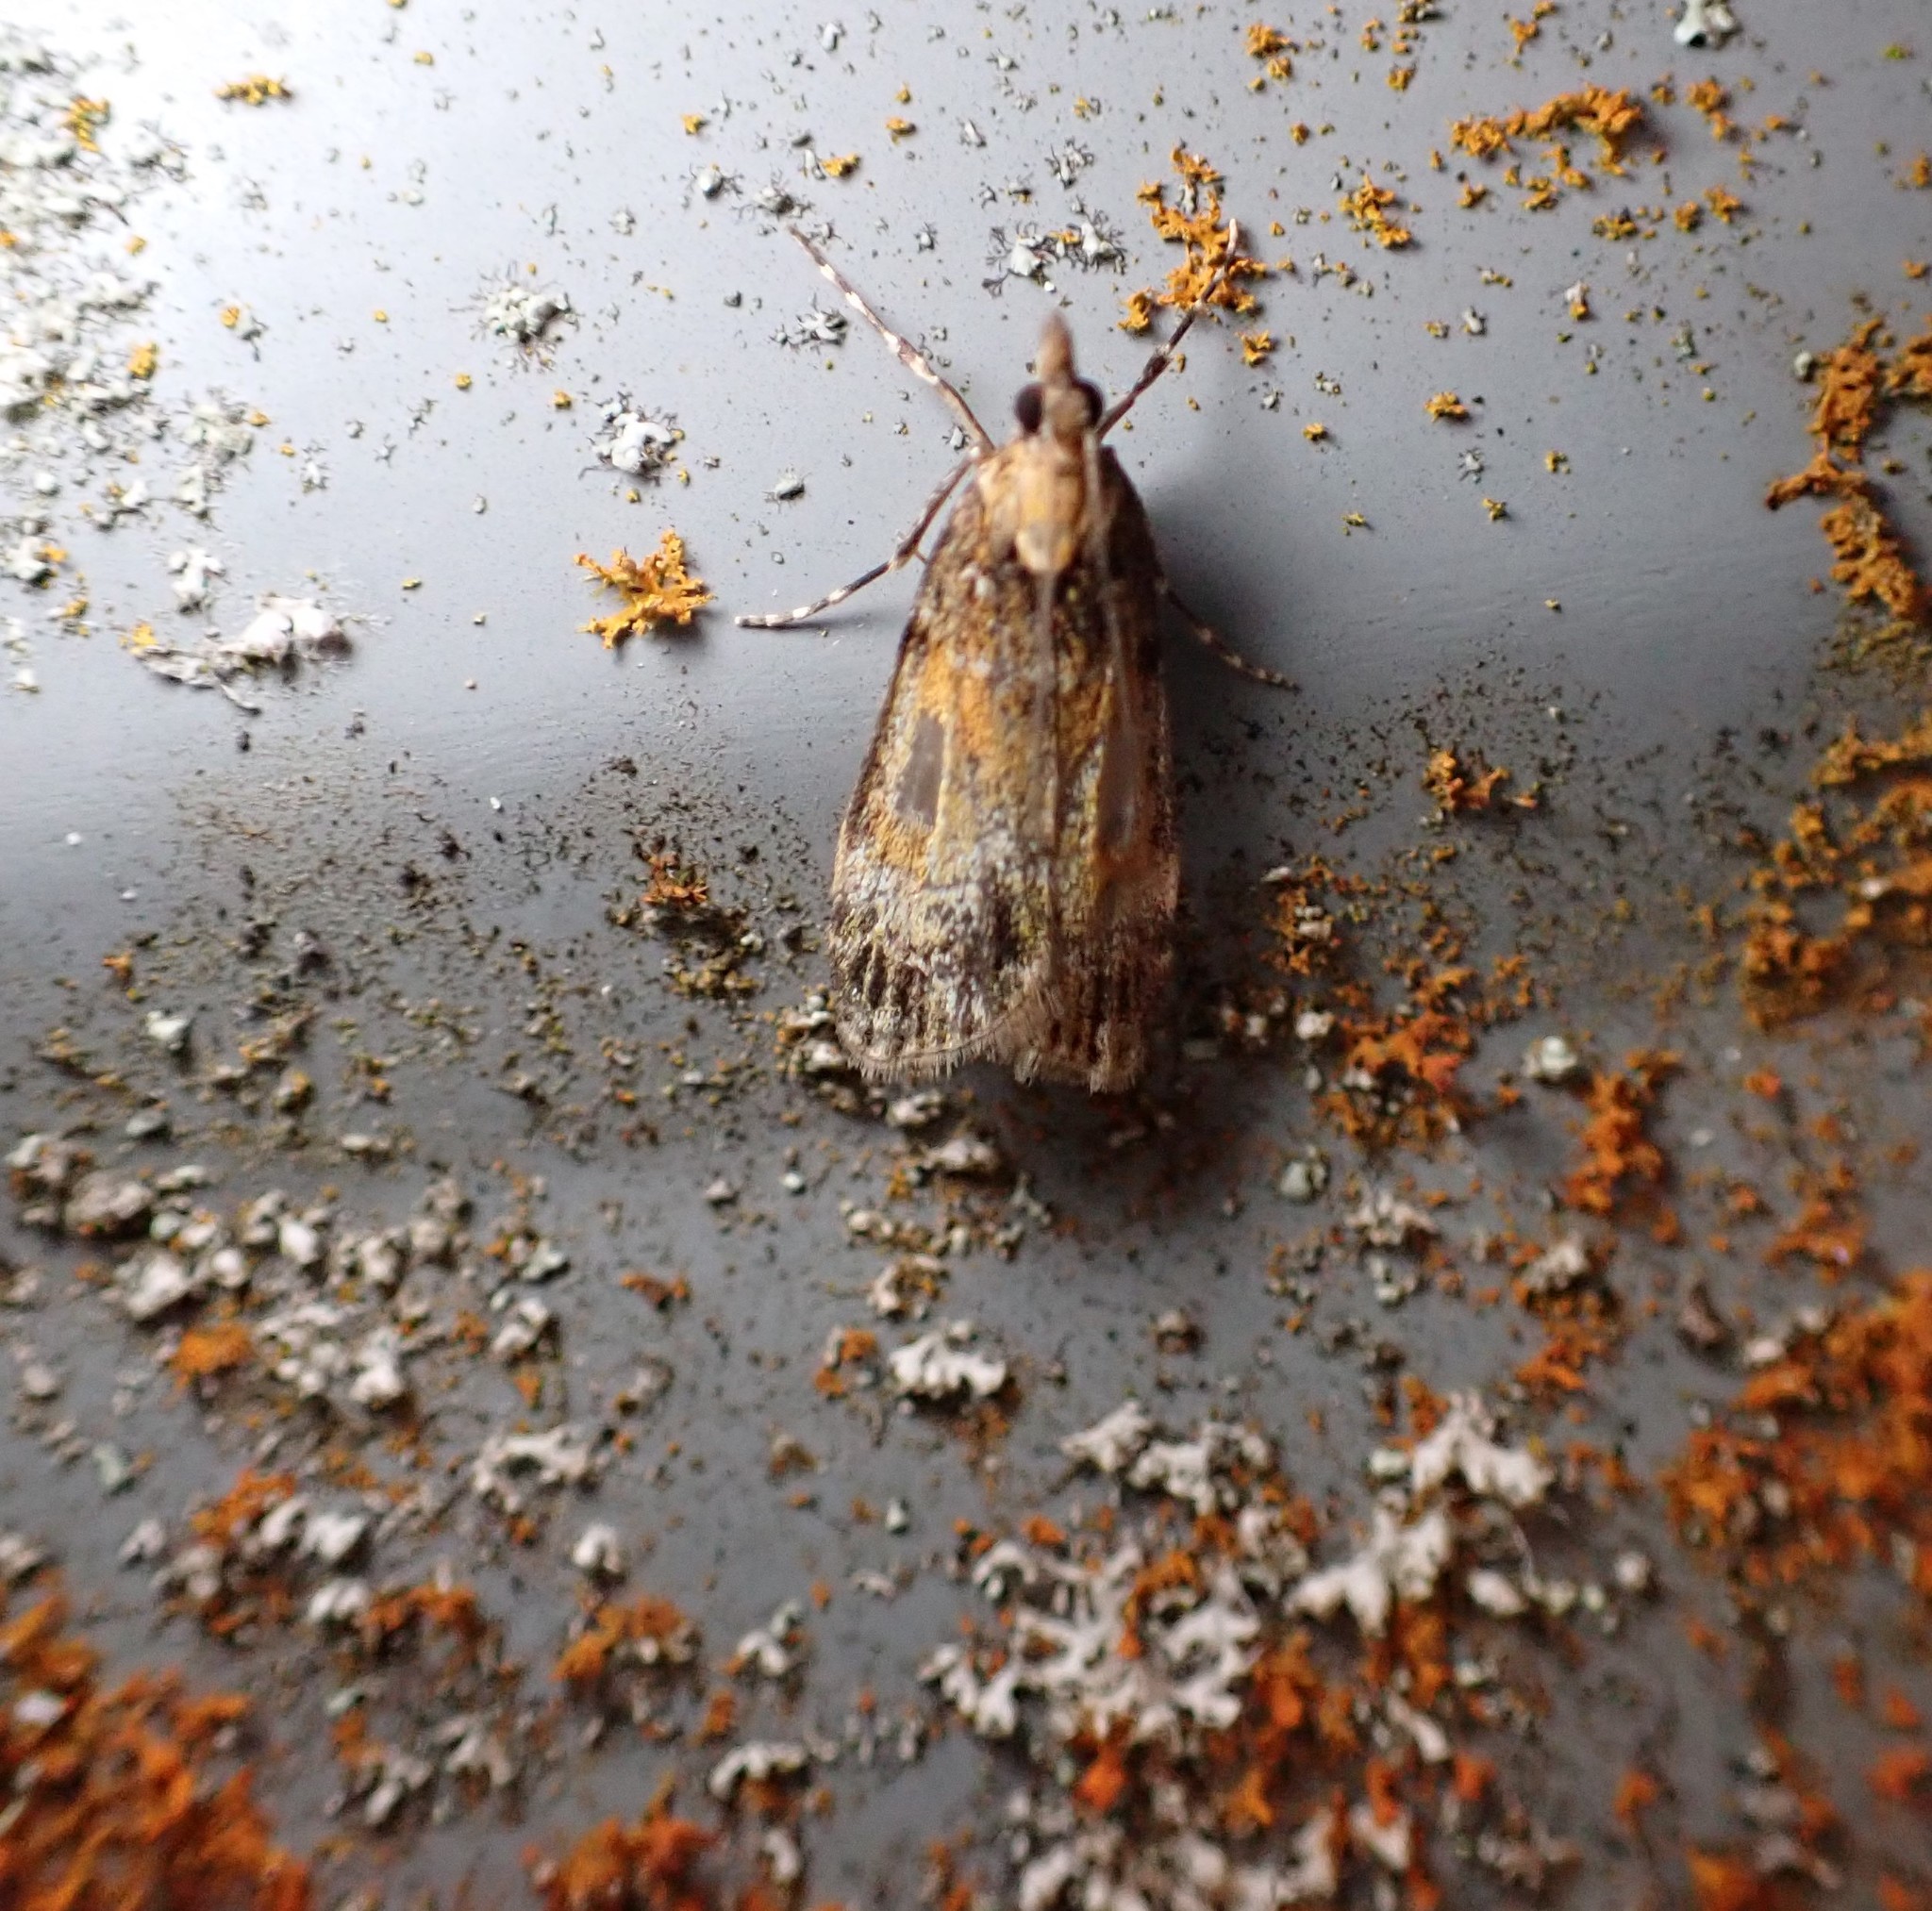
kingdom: Animalia
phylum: Arthropoda
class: Insecta
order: Lepidoptera
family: Crambidae
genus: Eudonia
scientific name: Eudonia thyridias
